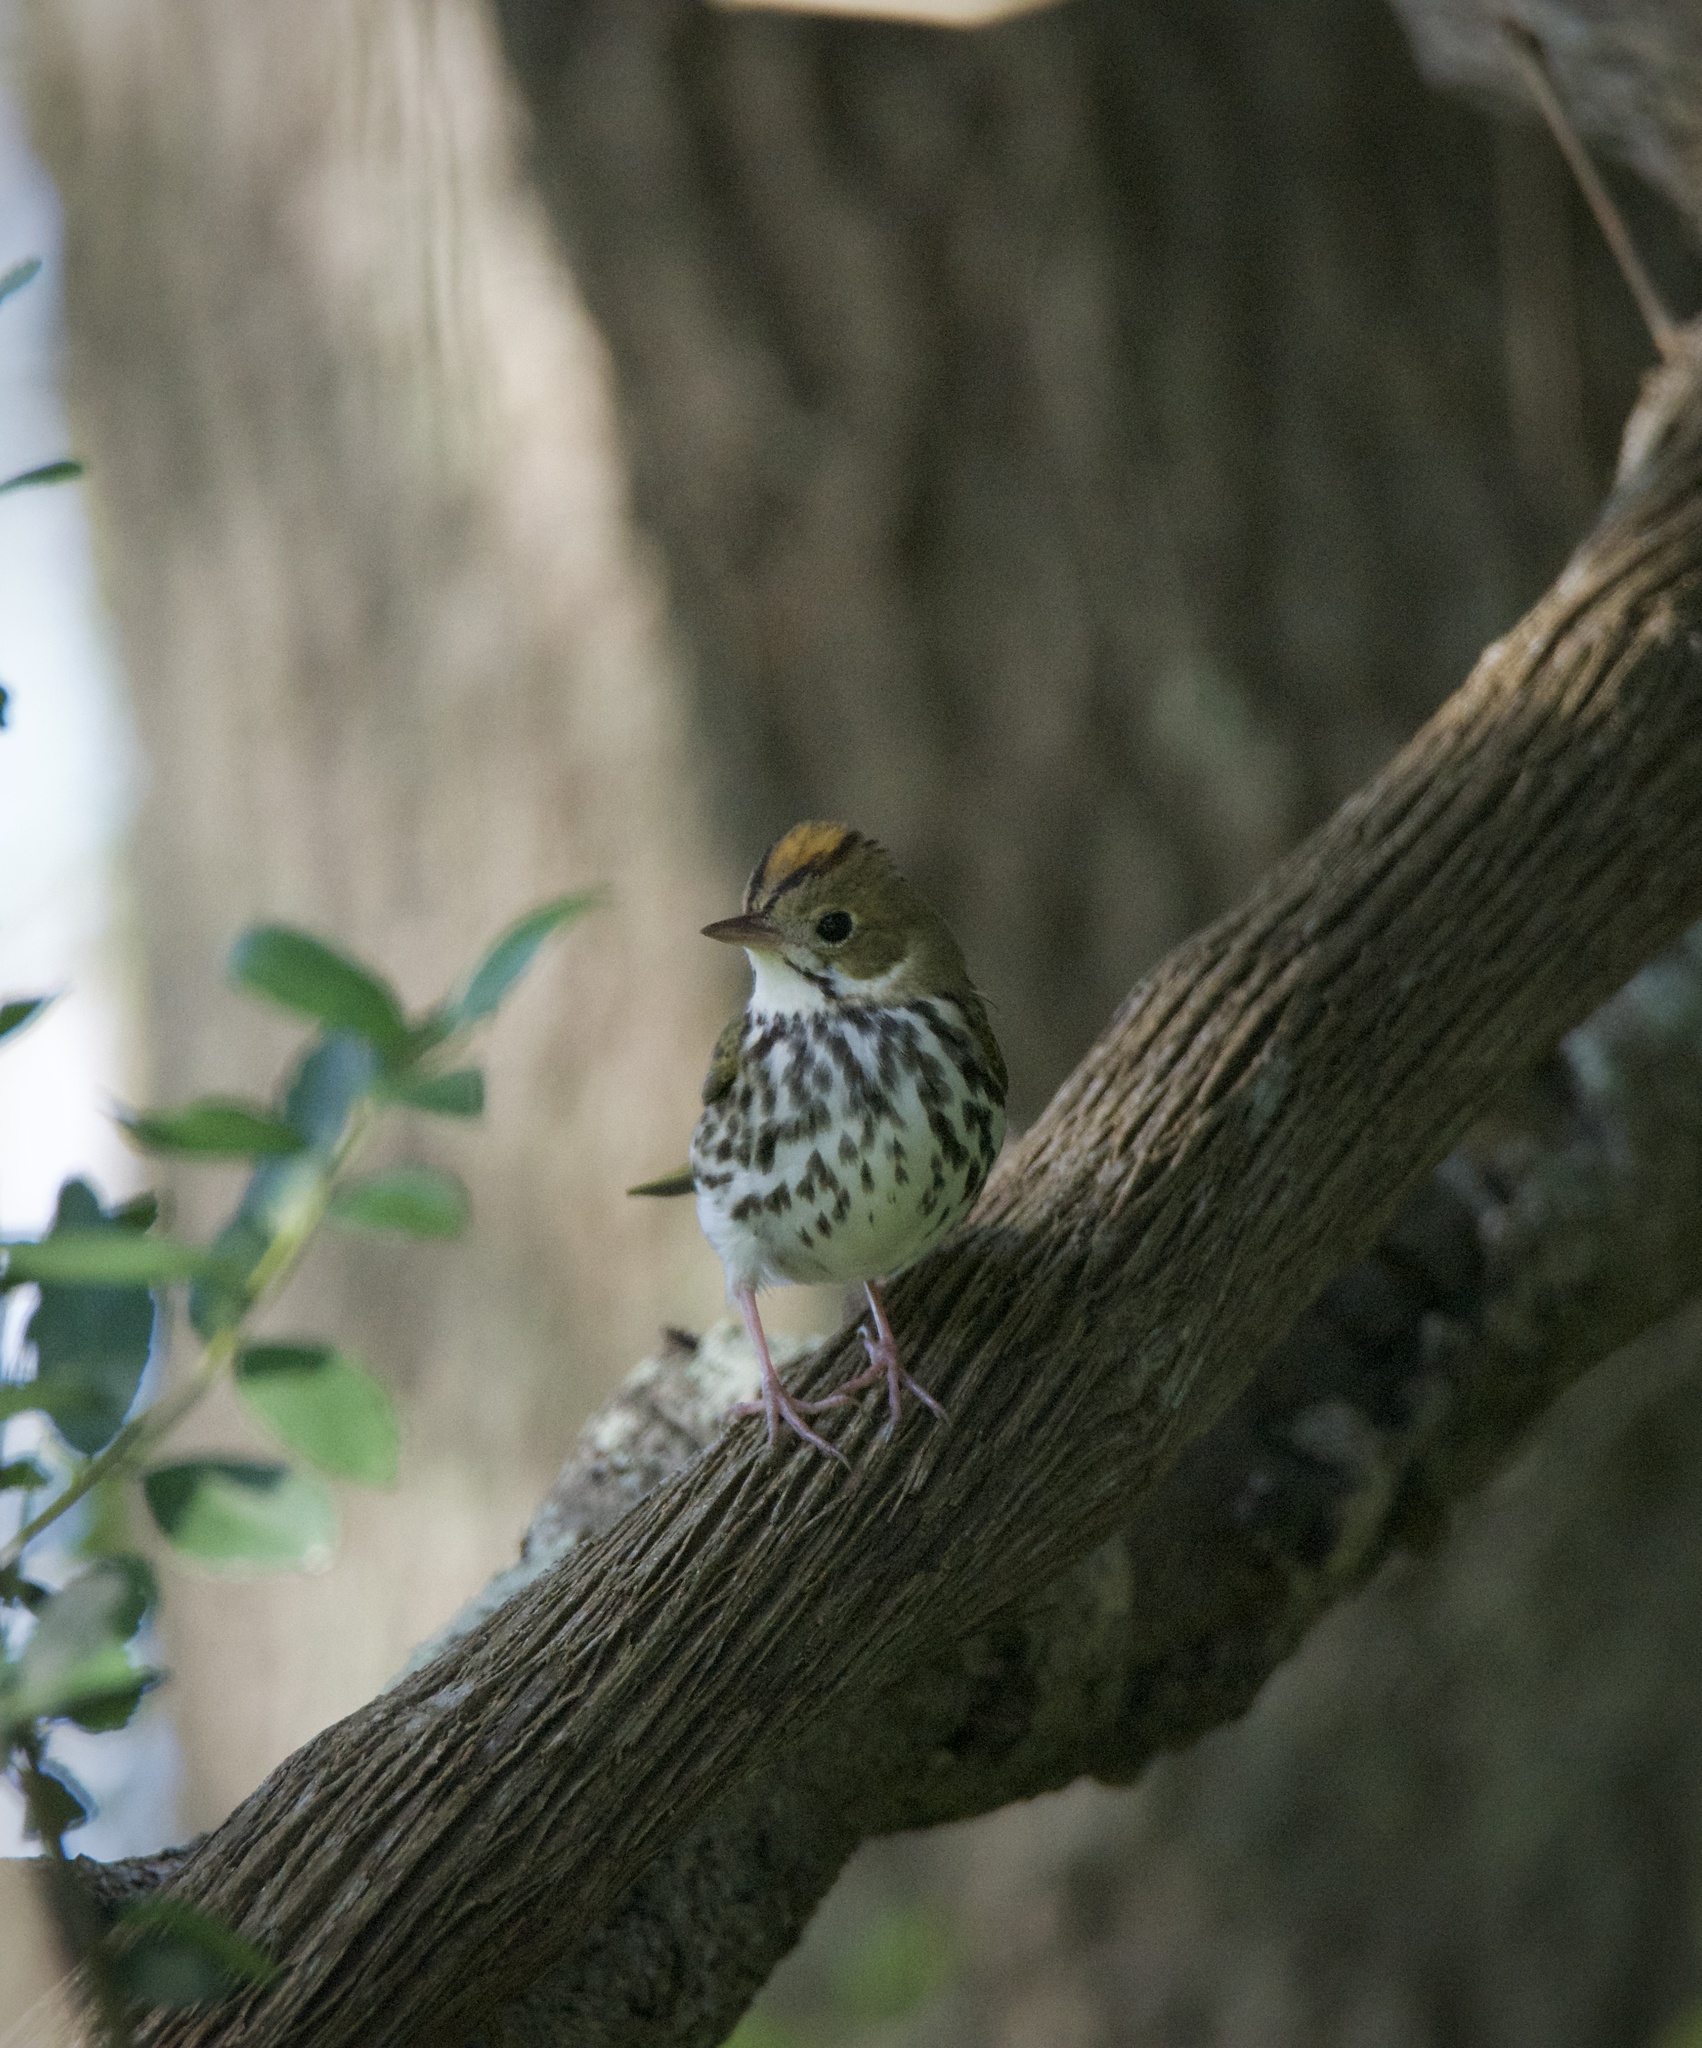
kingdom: Animalia
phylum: Chordata
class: Aves
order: Passeriformes
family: Parulidae
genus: Seiurus
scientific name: Seiurus aurocapilla
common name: Ovenbird
